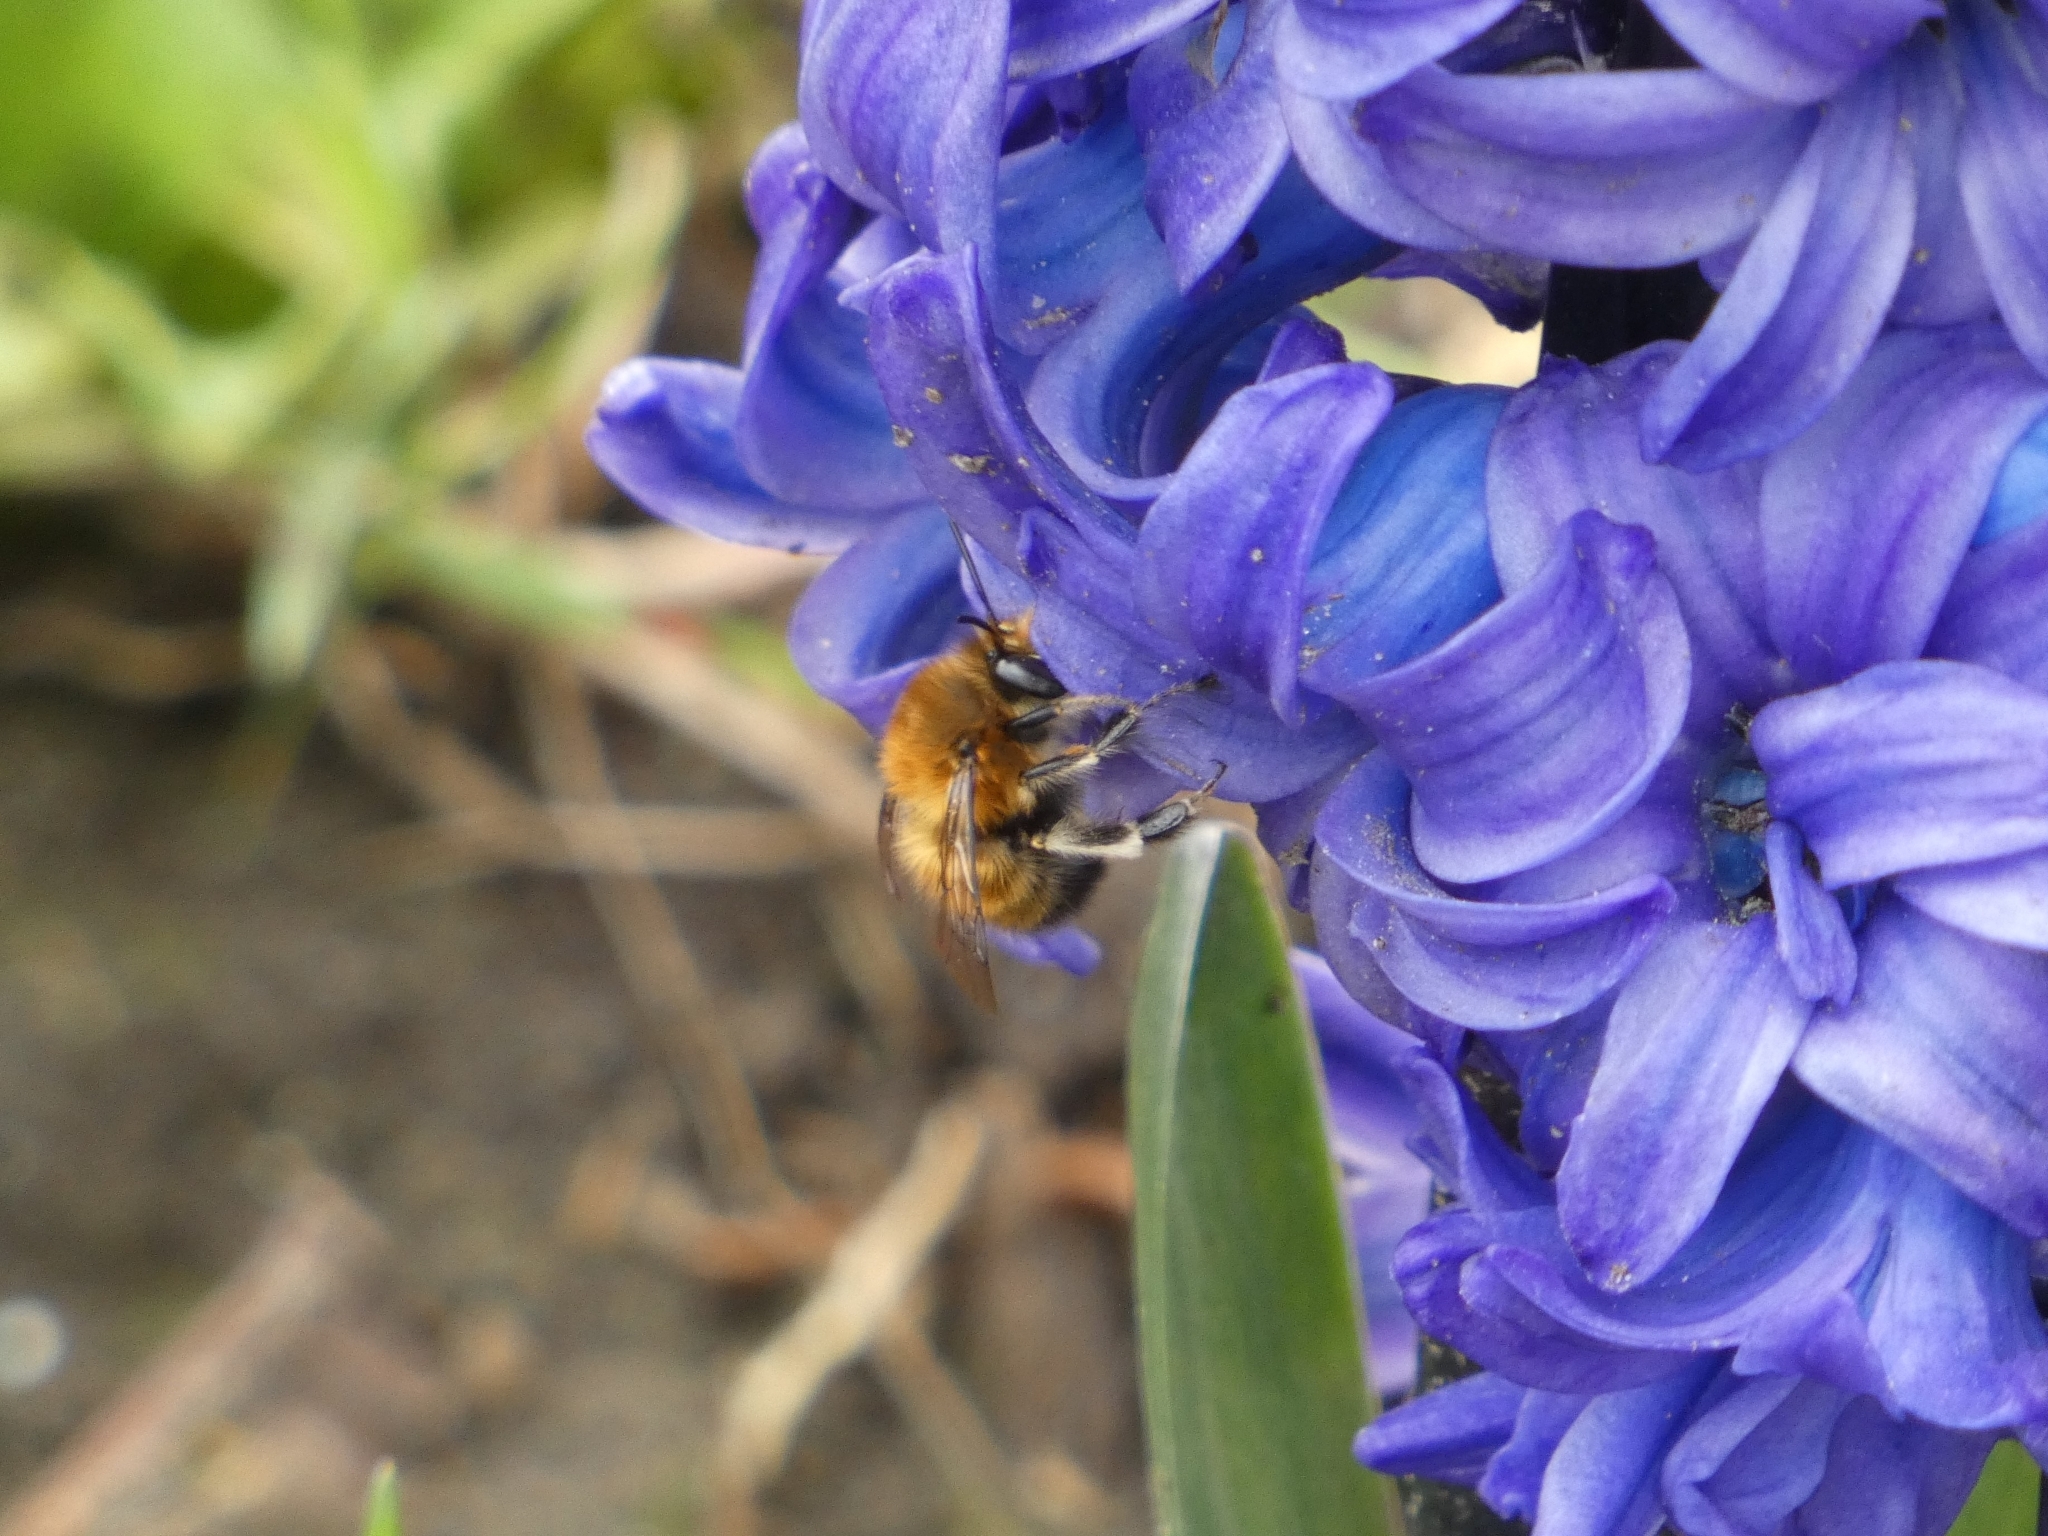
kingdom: Animalia
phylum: Arthropoda
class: Insecta
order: Hymenoptera
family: Apidae
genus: Anthophora
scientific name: Anthophora plumipes
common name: Hairy-footed flower bee
